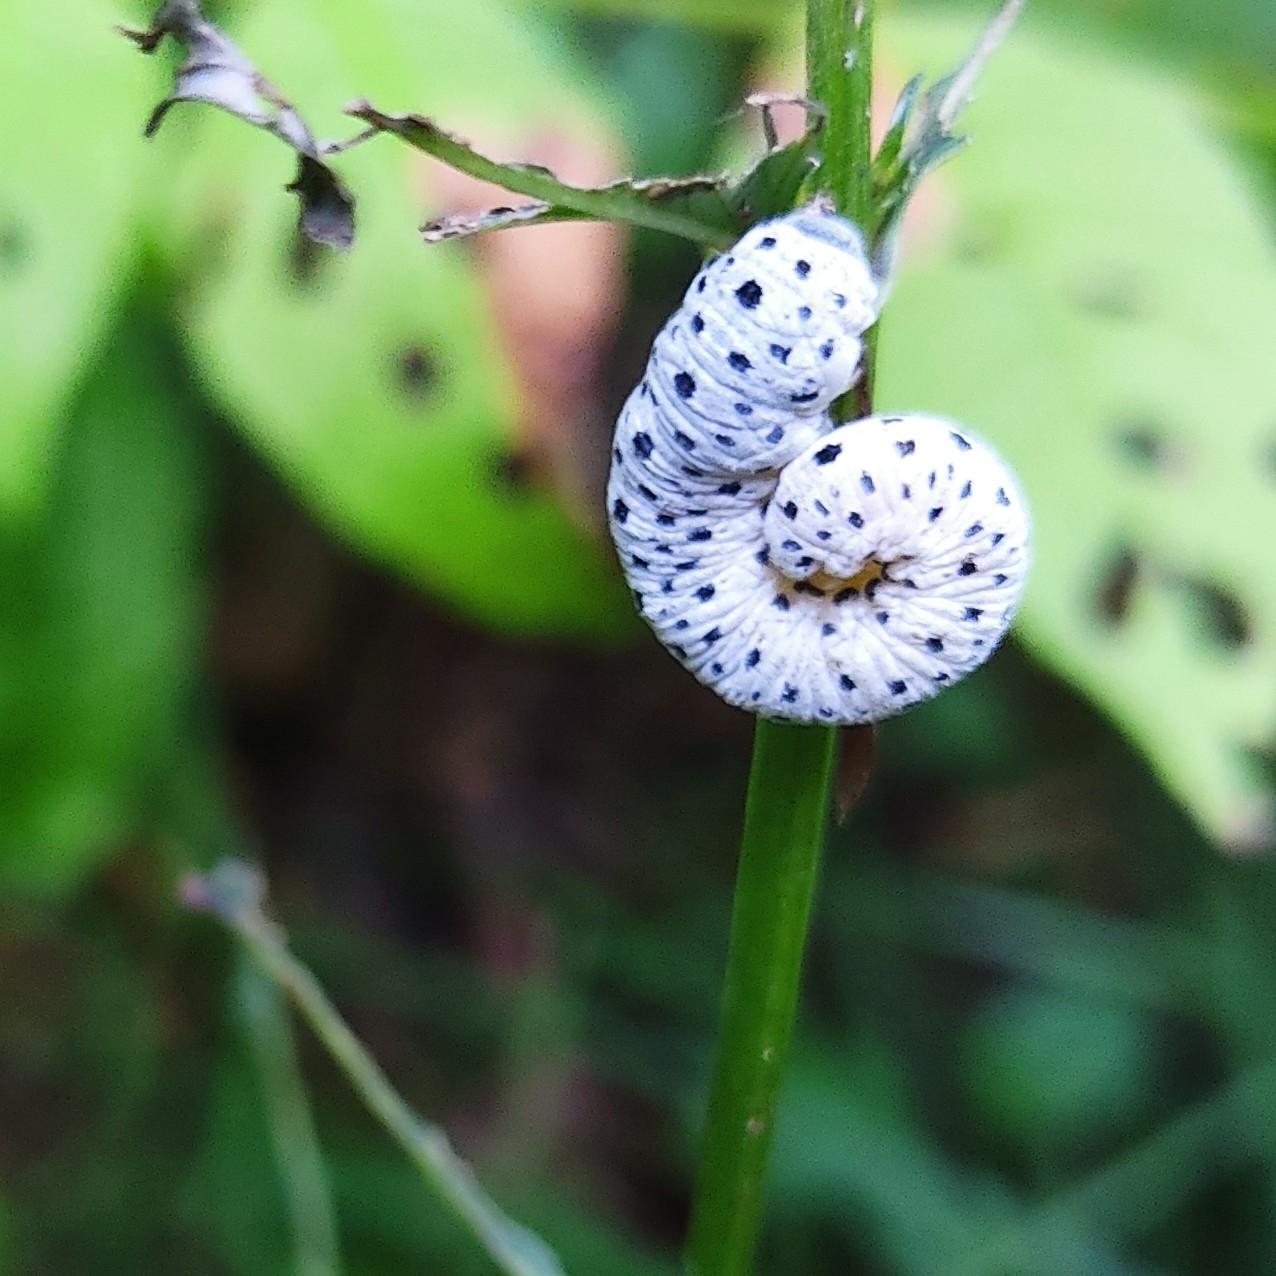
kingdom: Animalia
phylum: Arthropoda
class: Insecta
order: Hymenoptera
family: Tenthredinidae
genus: Tenthredo
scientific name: Tenthredo scrophulariae
